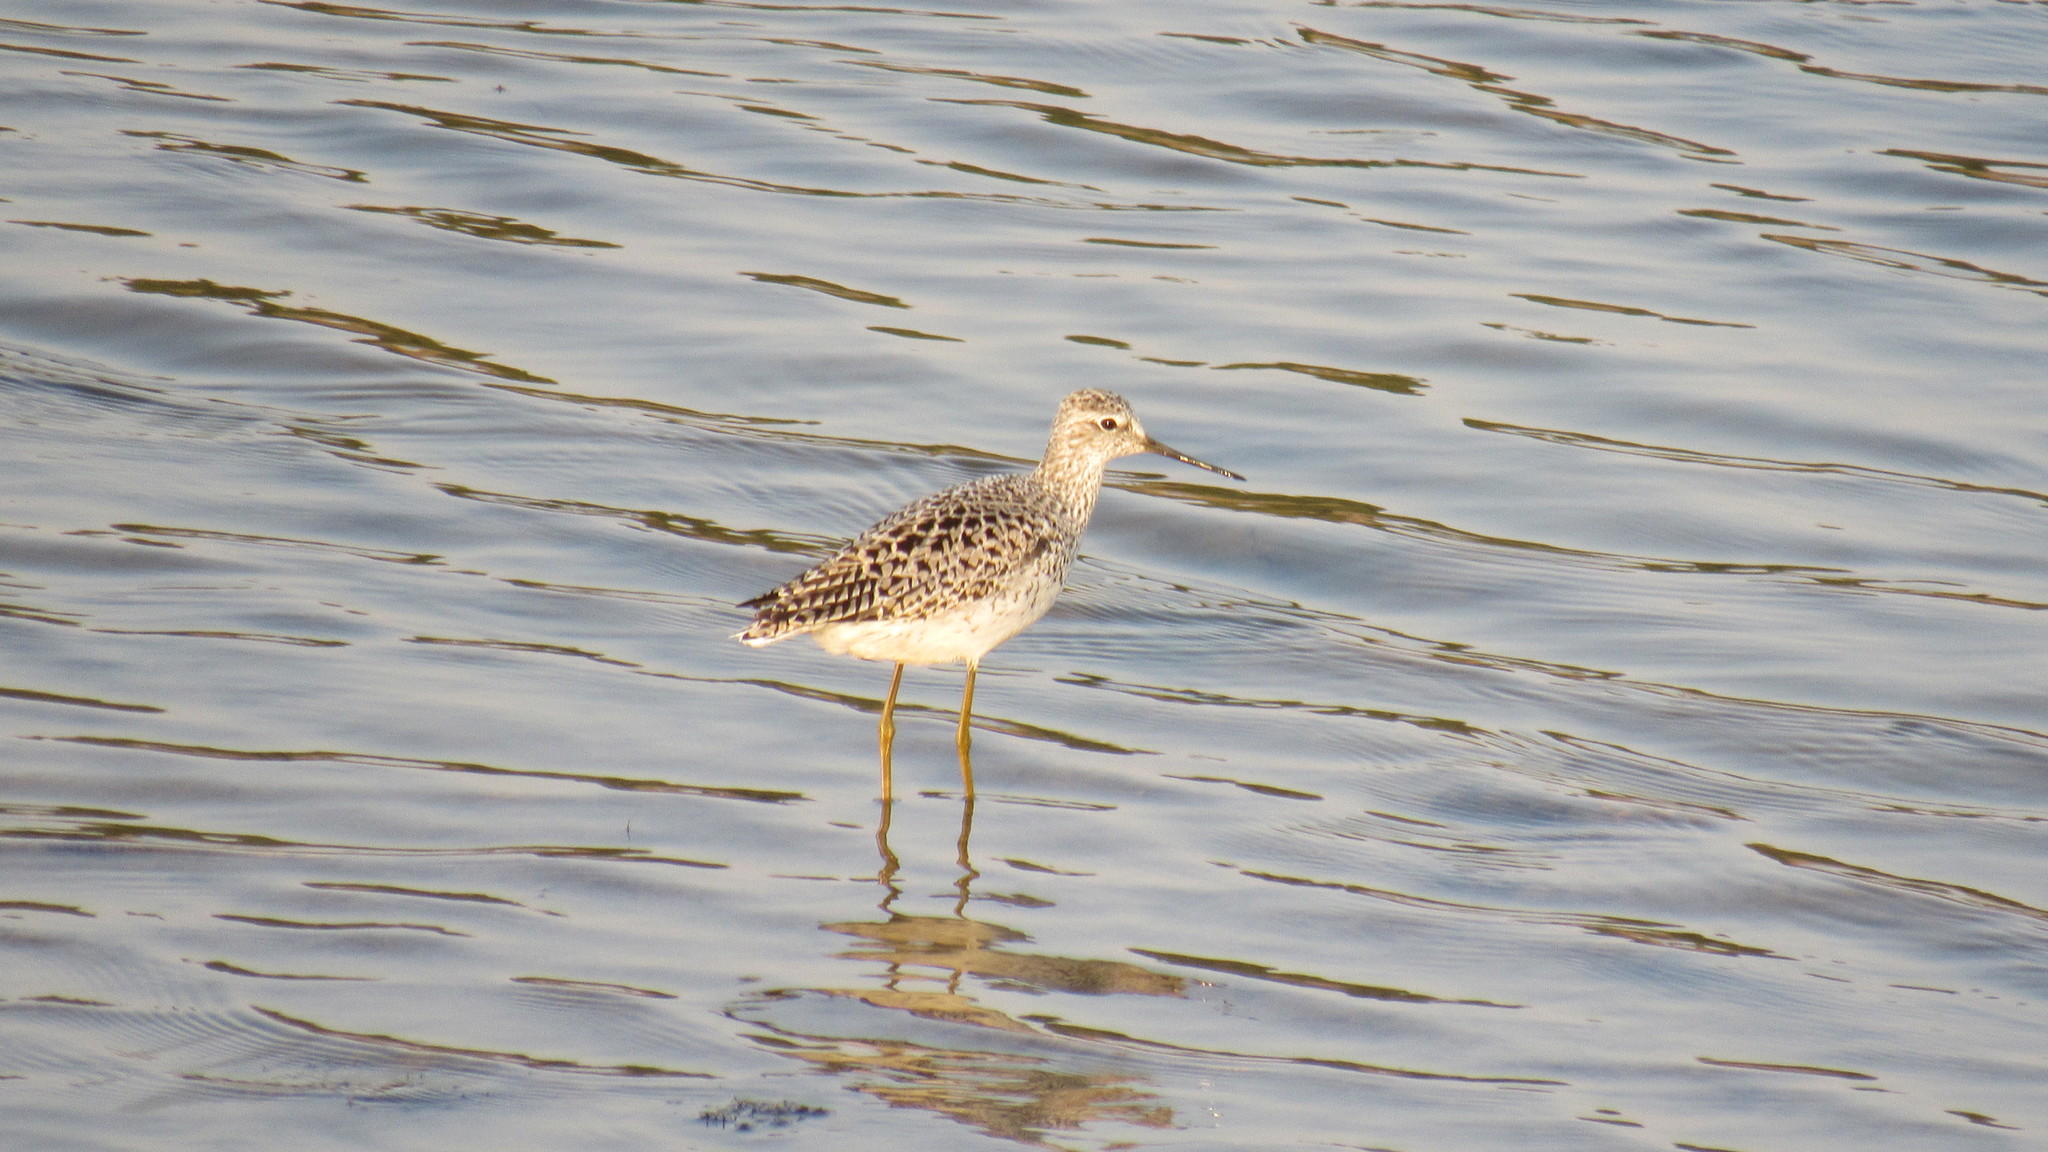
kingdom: Animalia
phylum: Chordata
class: Aves
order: Charadriiformes
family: Scolopacidae
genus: Tringa
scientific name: Tringa stagnatilis
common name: Marsh sandpiper
